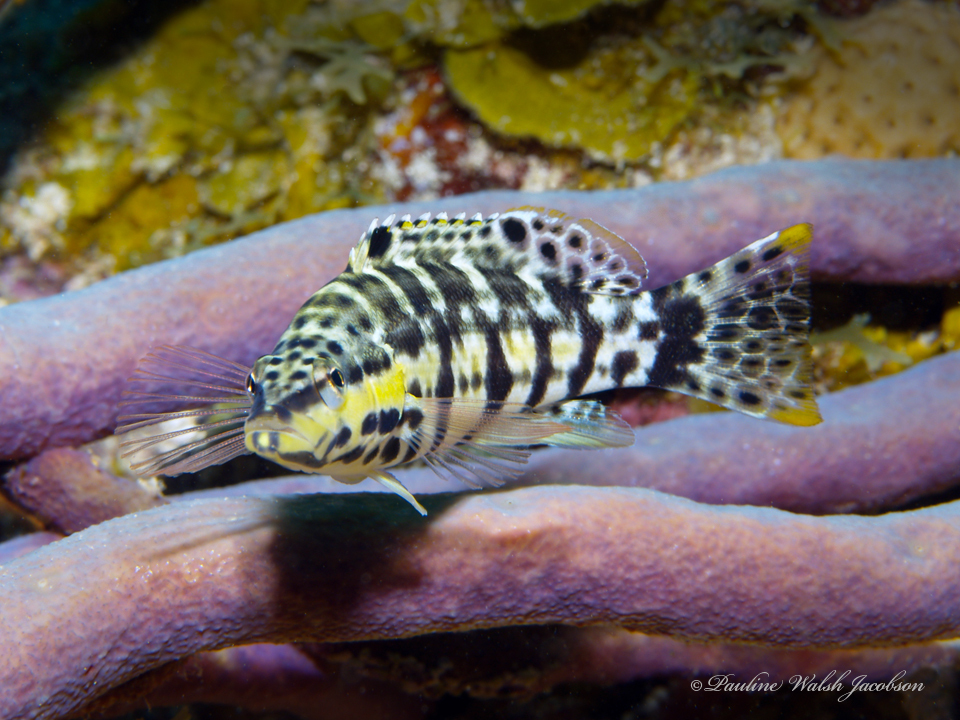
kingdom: Animalia
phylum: Chordata
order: Perciformes
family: Serranidae
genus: Serranus
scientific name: Serranus tigrinus
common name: Harlequin bass
